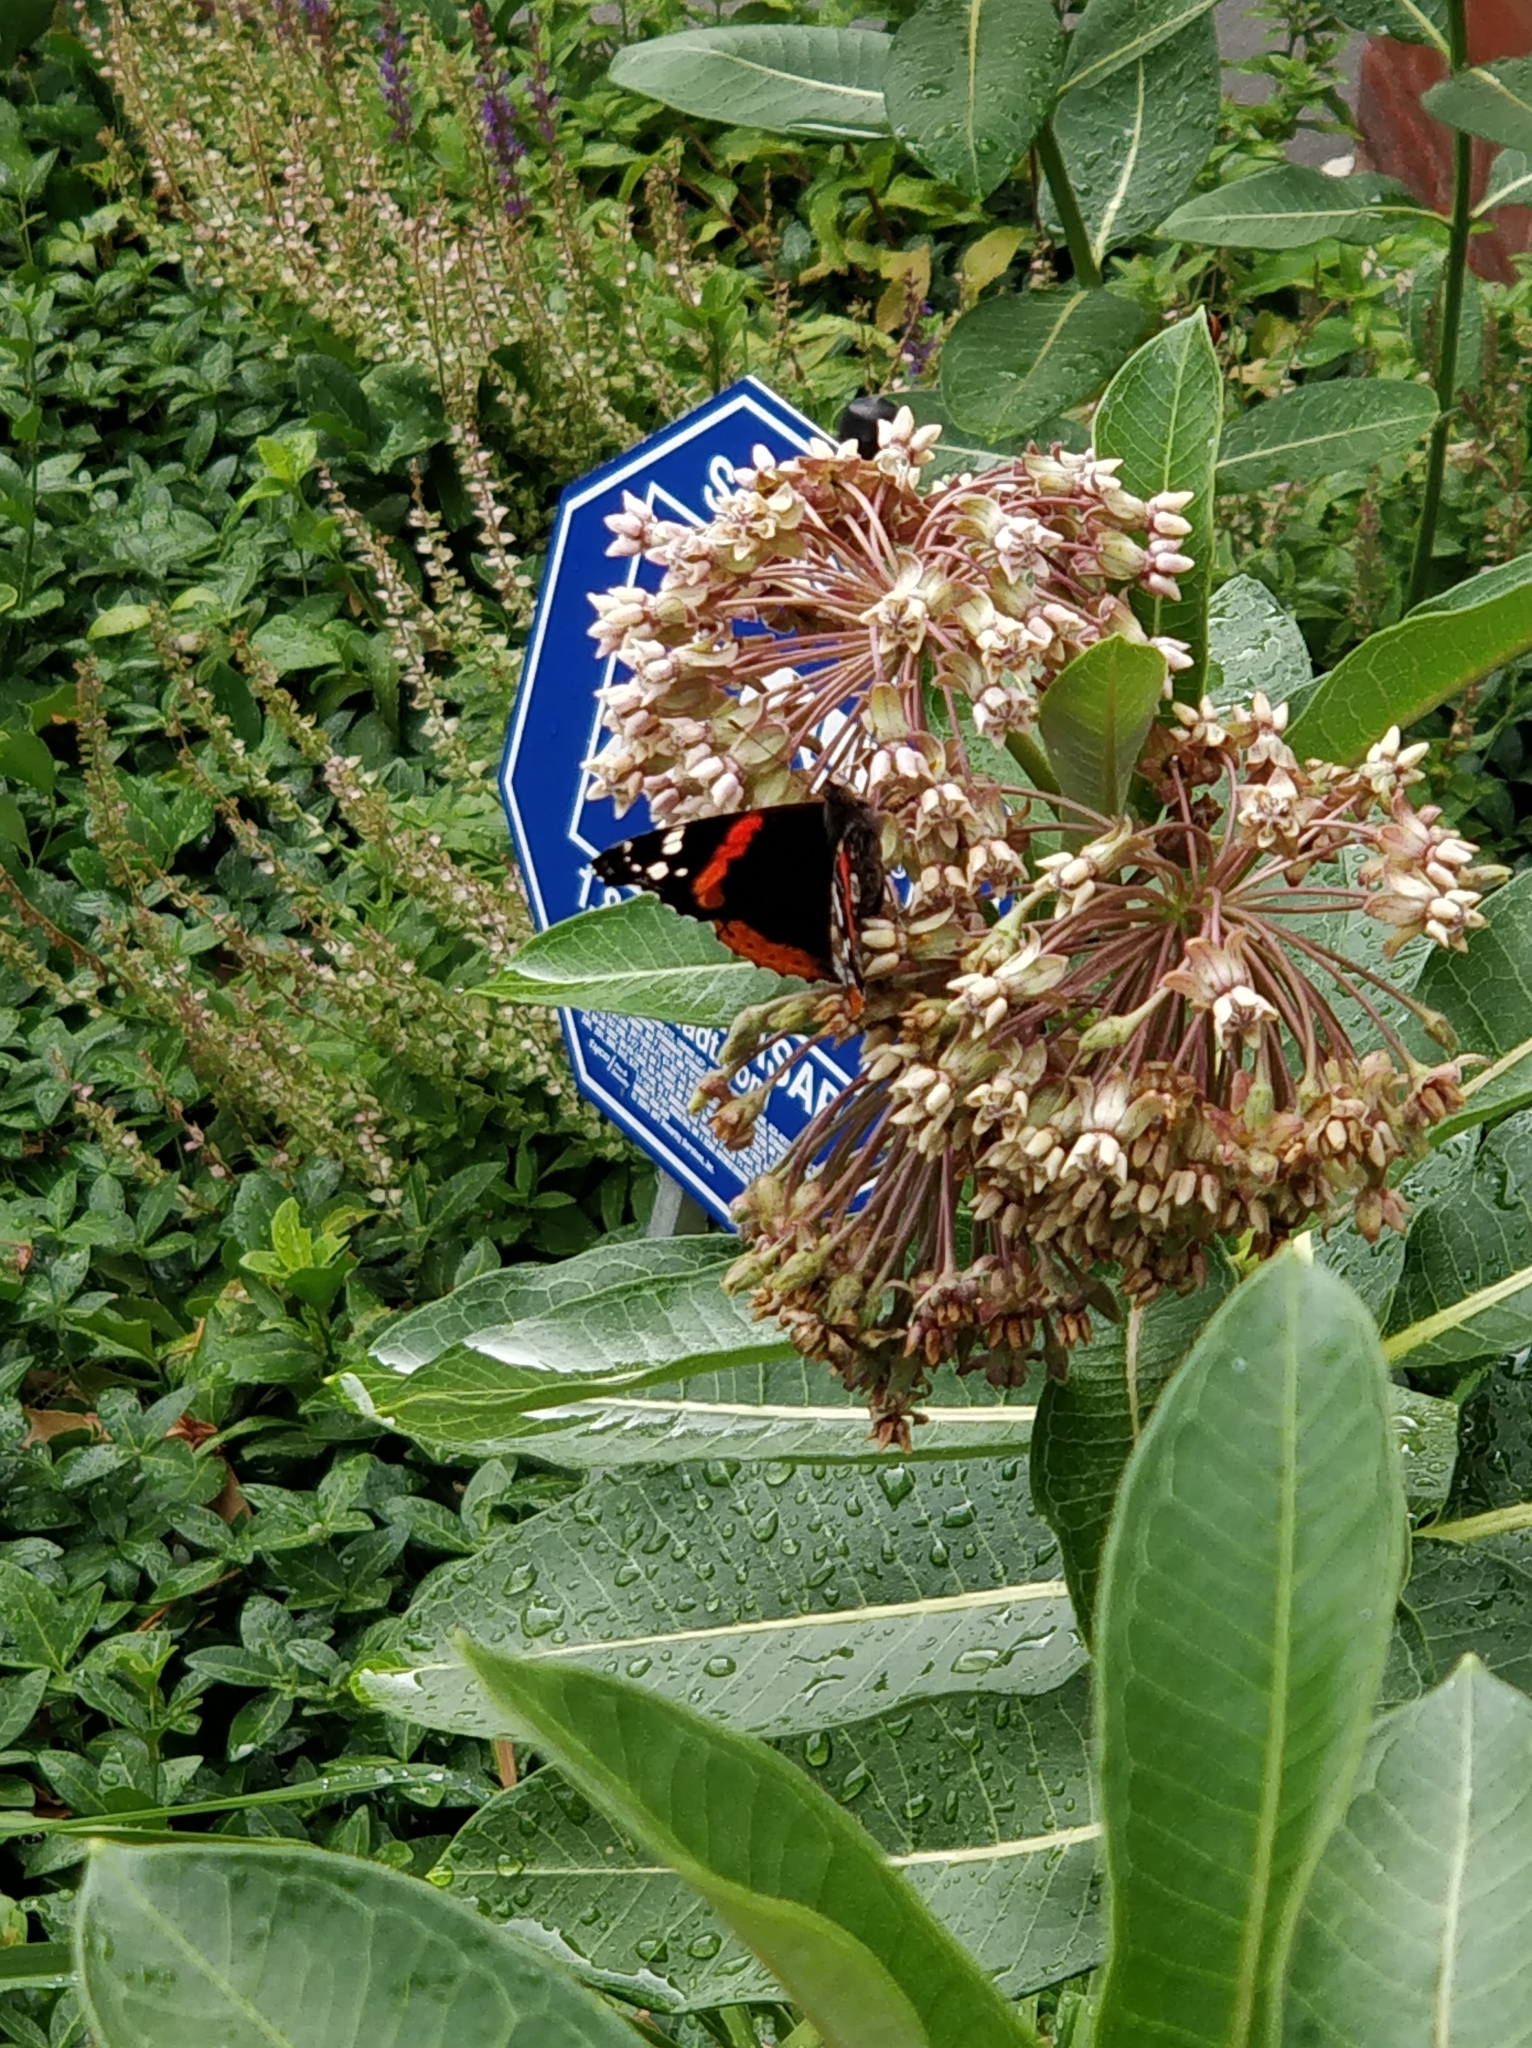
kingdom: Animalia
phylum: Arthropoda
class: Insecta
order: Lepidoptera
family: Nymphalidae
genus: Vanessa
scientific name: Vanessa atalanta
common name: Red admiral
